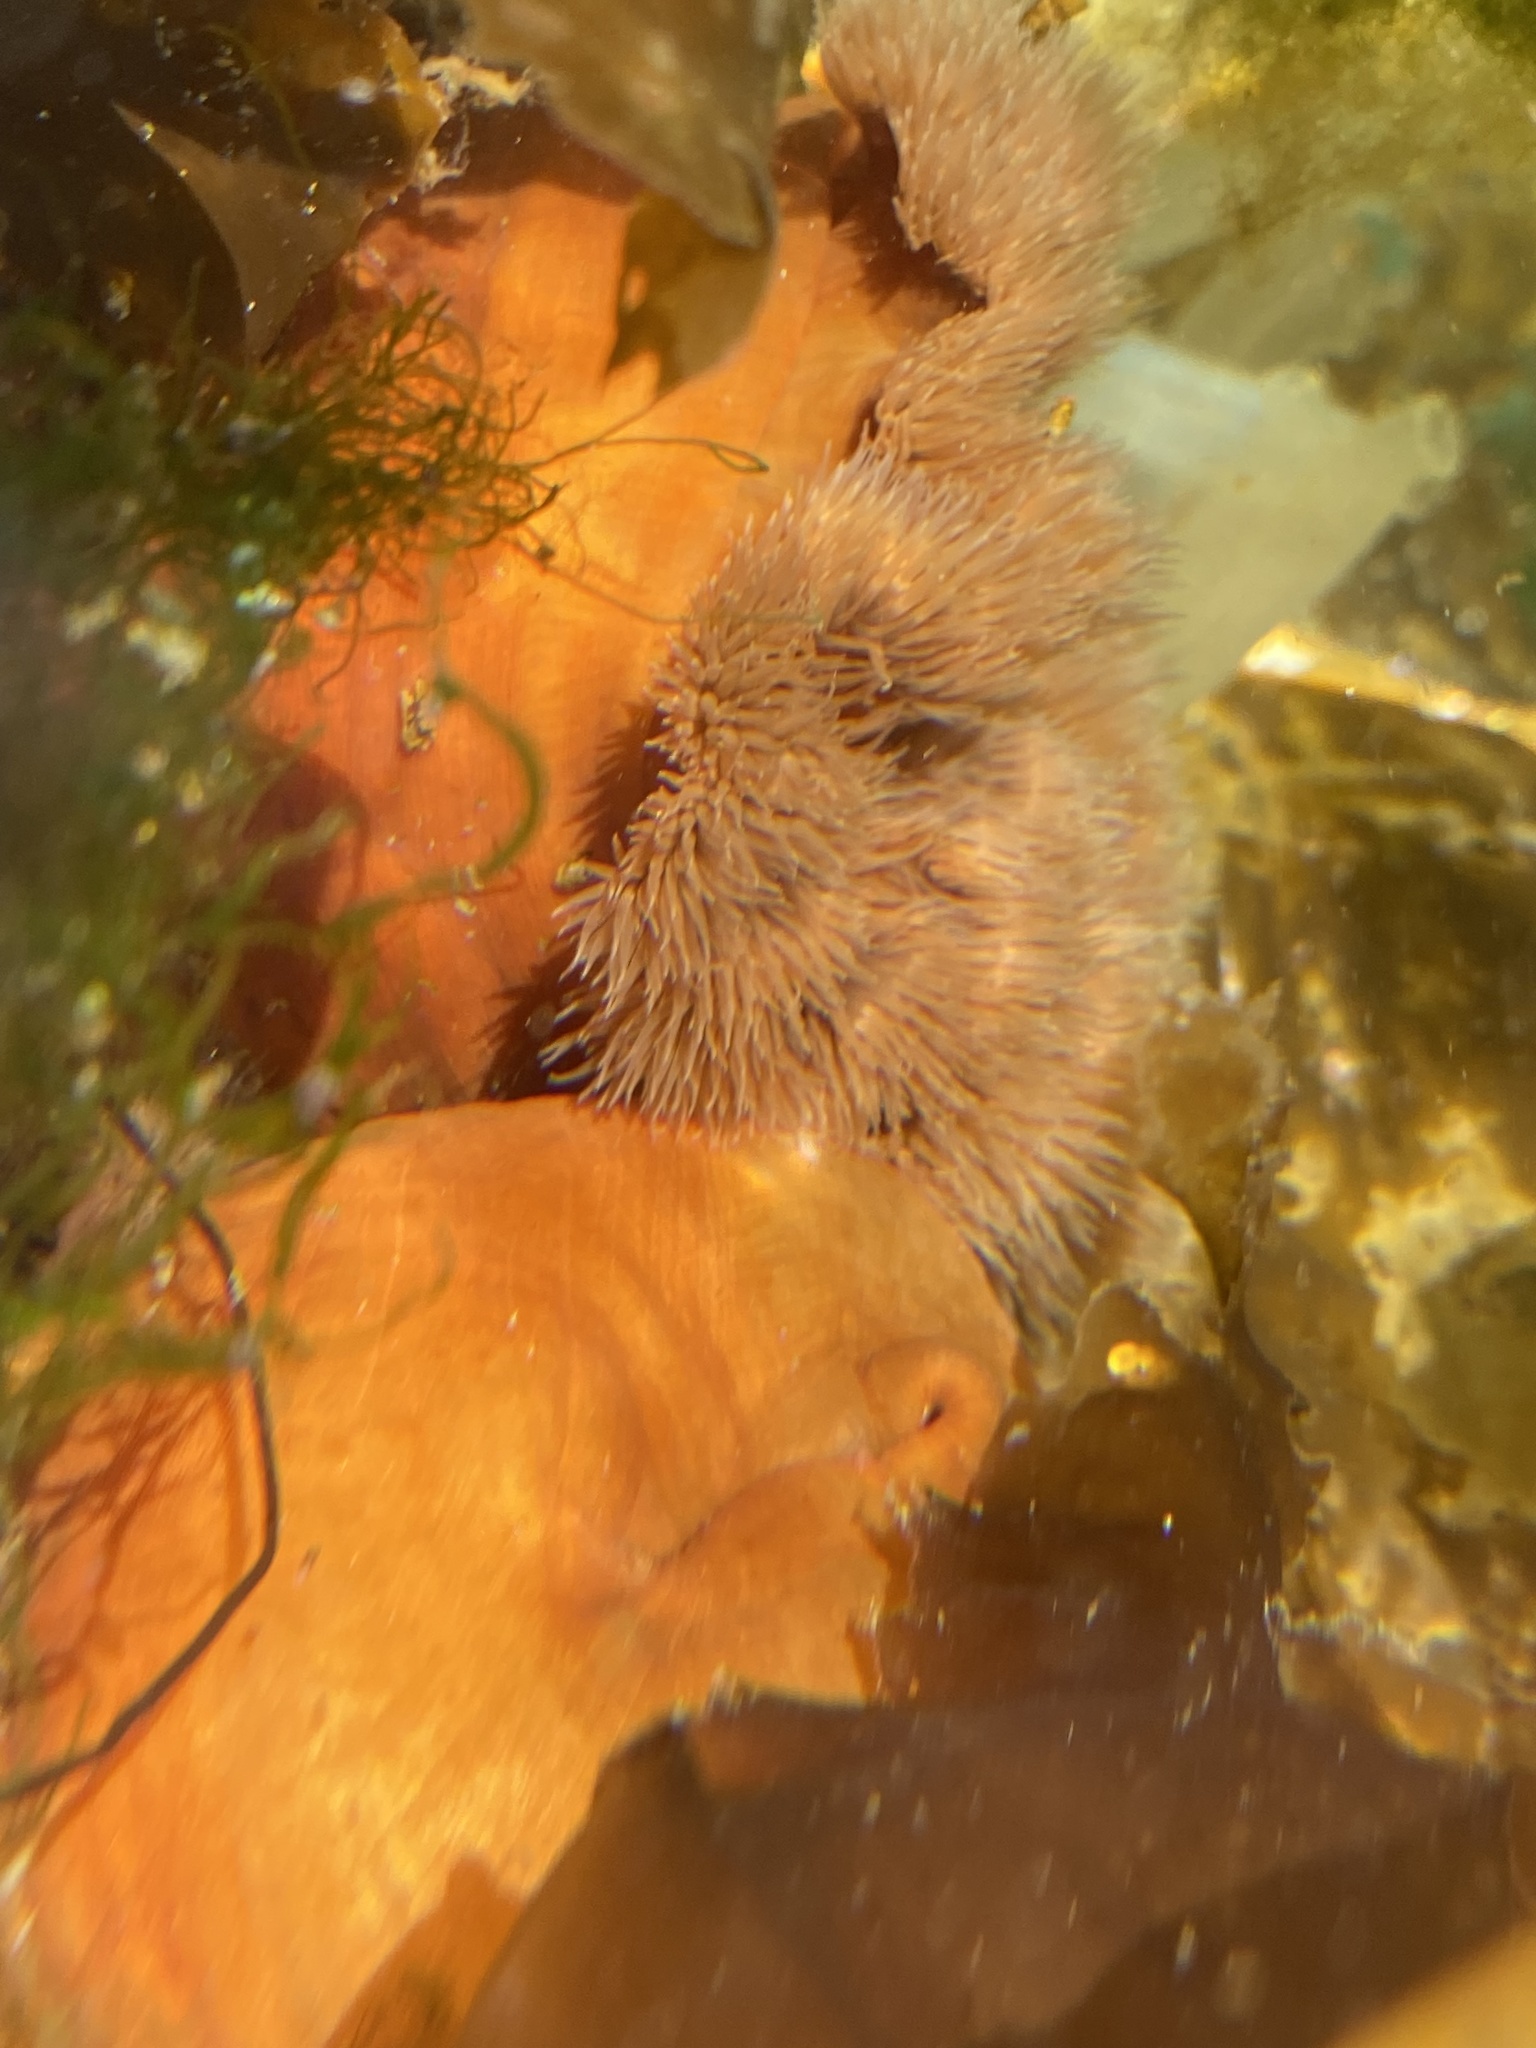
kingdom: Animalia
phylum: Cnidaria
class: Anthozoa
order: Actiniaria
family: Metridiidae
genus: Metridium
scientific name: Metridium senile
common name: Clonal plumose anemone
